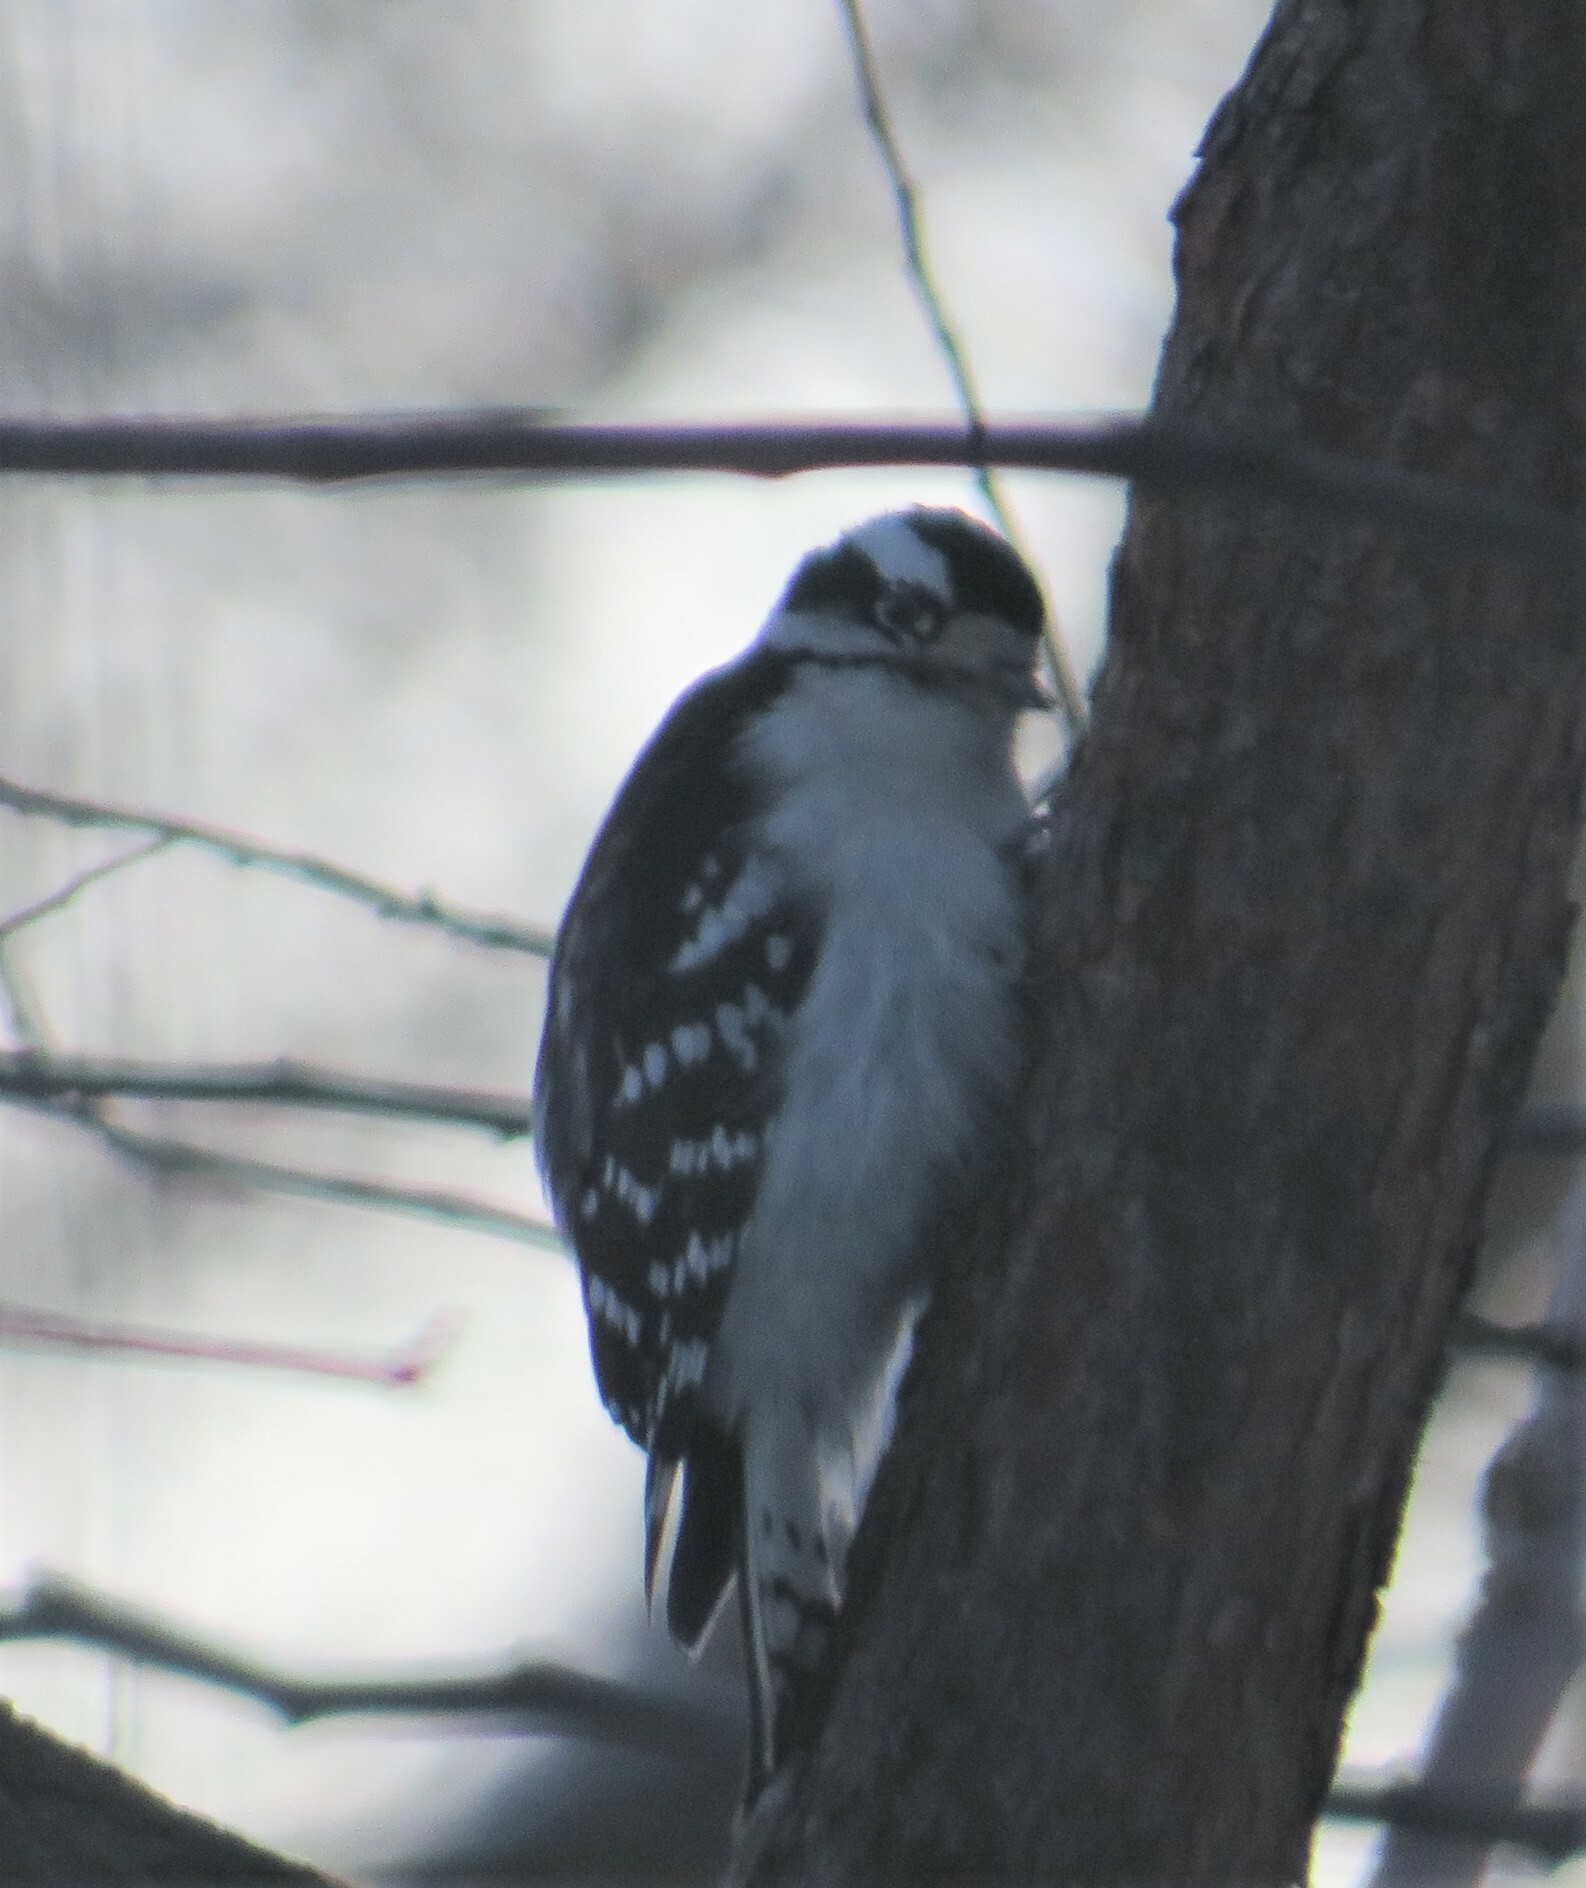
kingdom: Animalia
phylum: Chordata
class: Aves
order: Piciformes
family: Picidae
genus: Dryobates
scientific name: Dryobates pubescens
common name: Downy woodpecker
